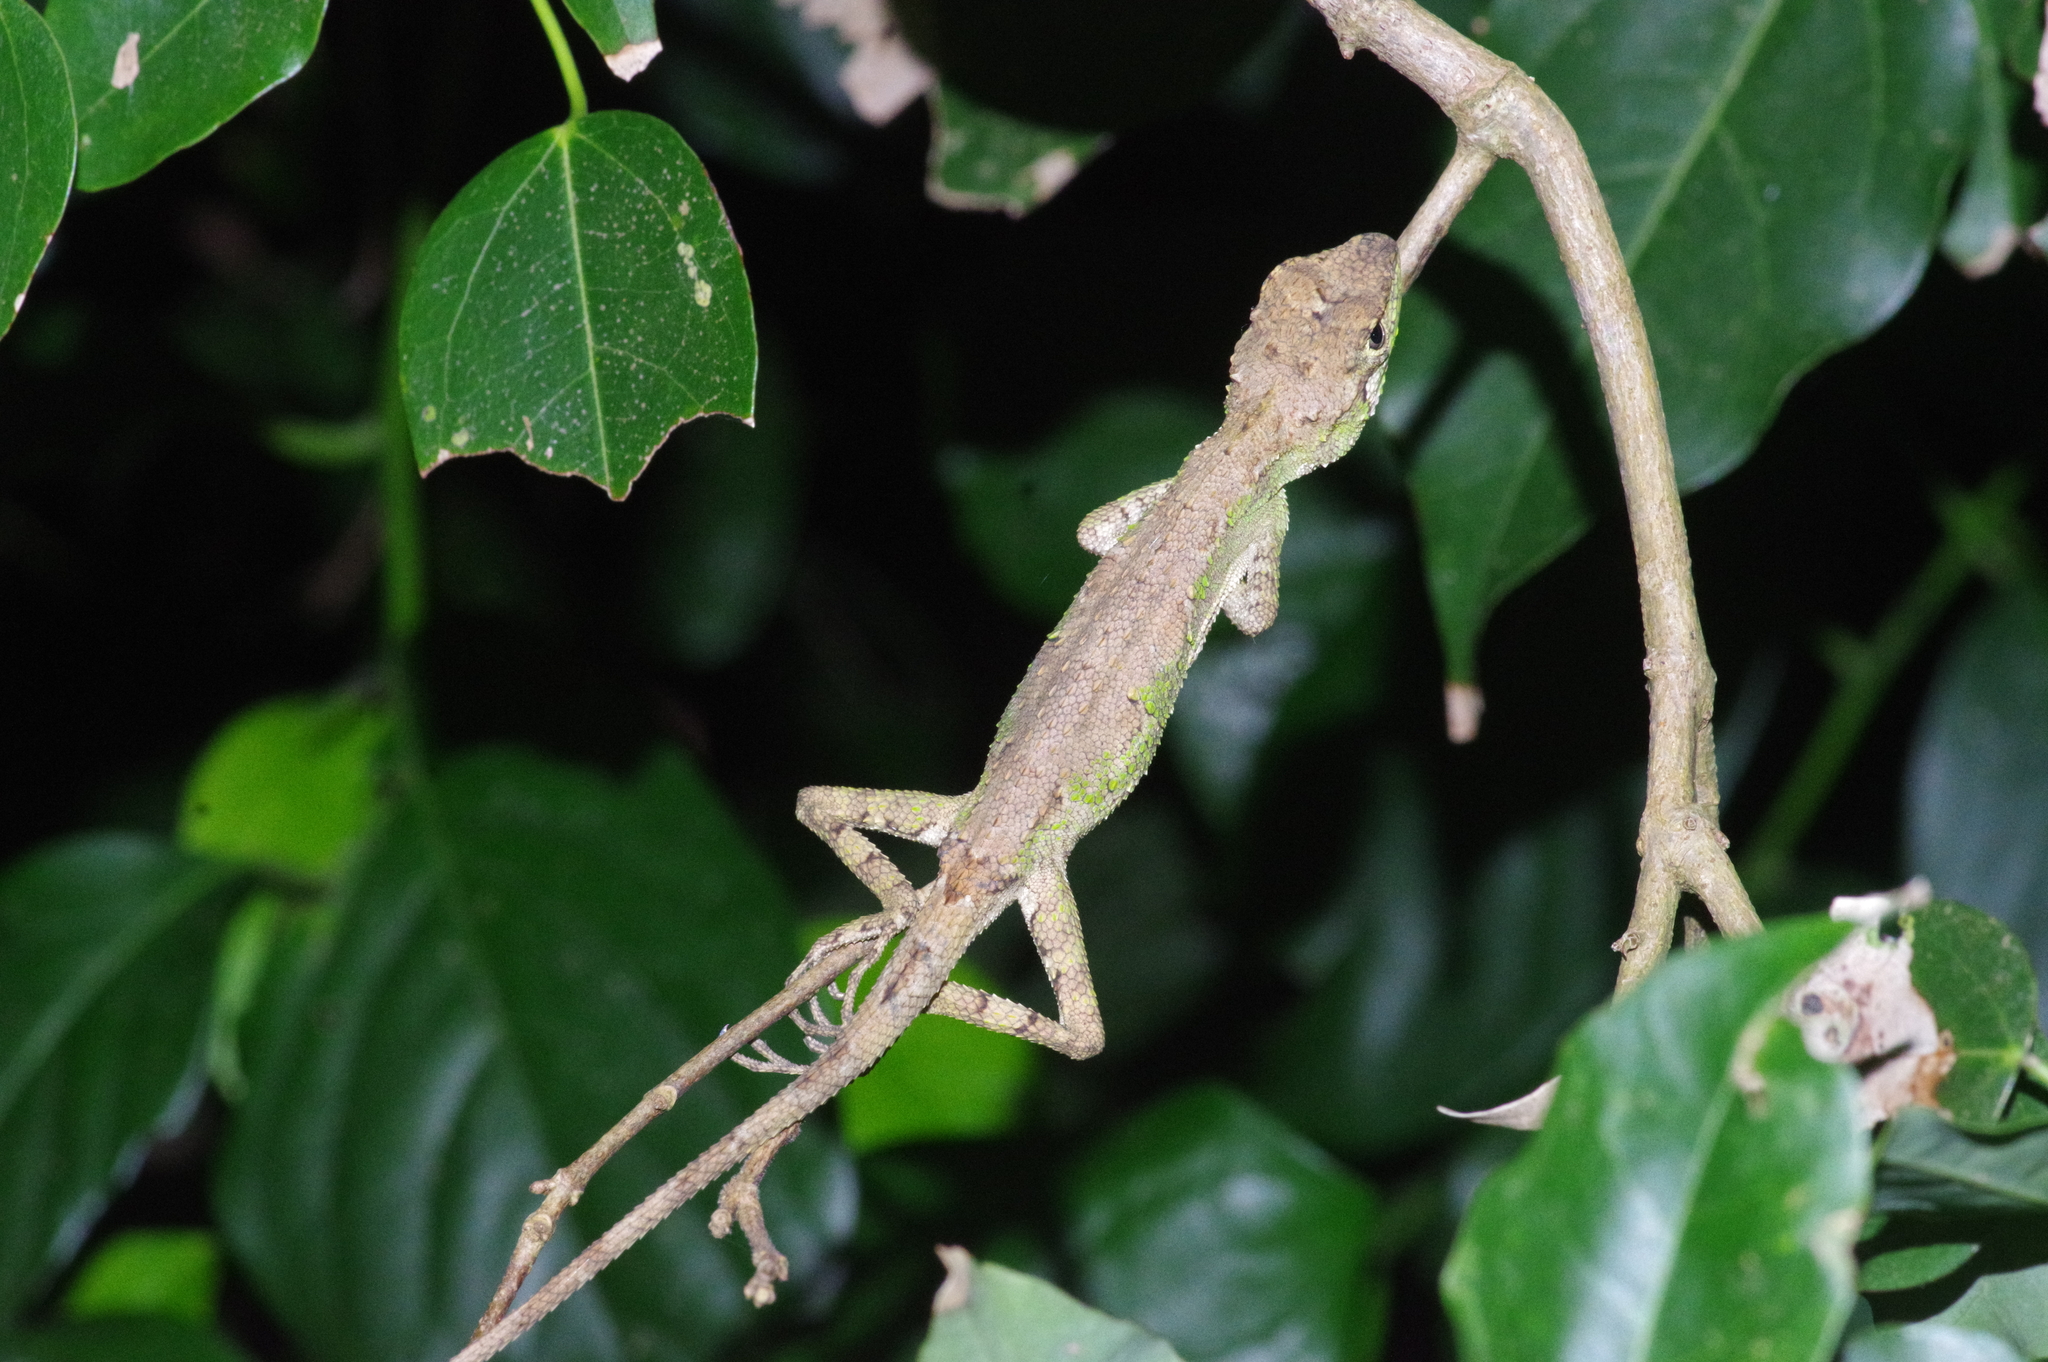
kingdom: Fungi
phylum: Basidiomycota
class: Agaricomycetes
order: Boletales
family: Diplocystidiaceae
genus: Diploderma
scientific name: Diploderma polygonatum
